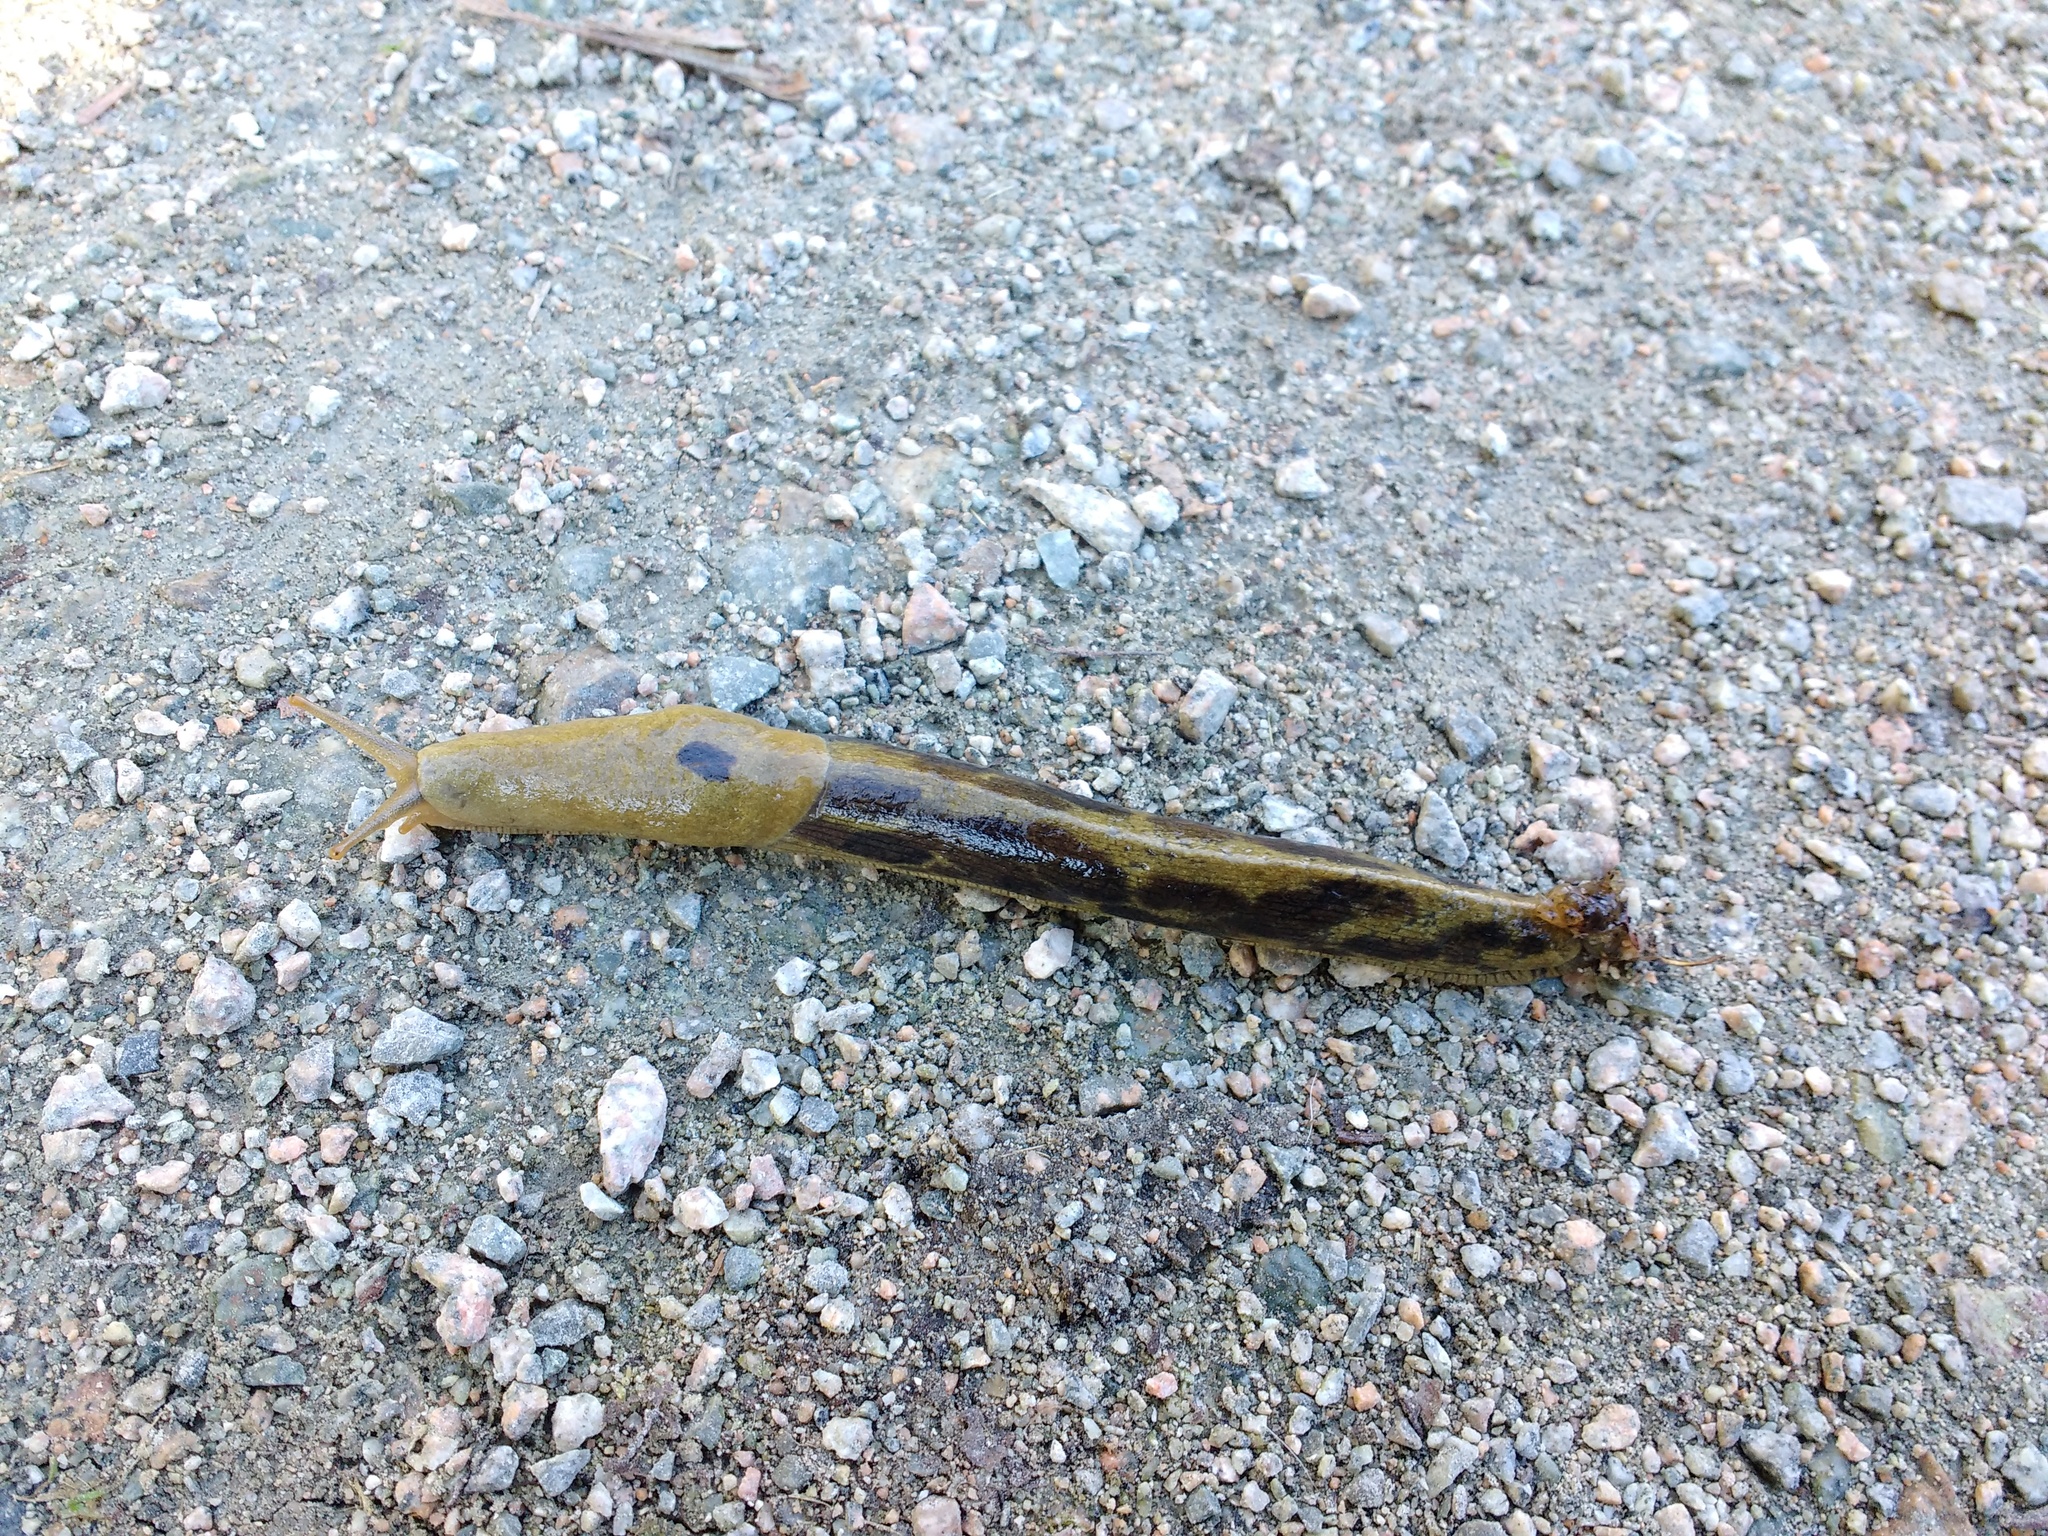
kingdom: Animalia
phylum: Mollusca
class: Gastropoda
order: Stylommatophora
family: Ariolimacidae
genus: Ariolimax
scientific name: Ariolimax columbianus
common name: Pacific banana slug
